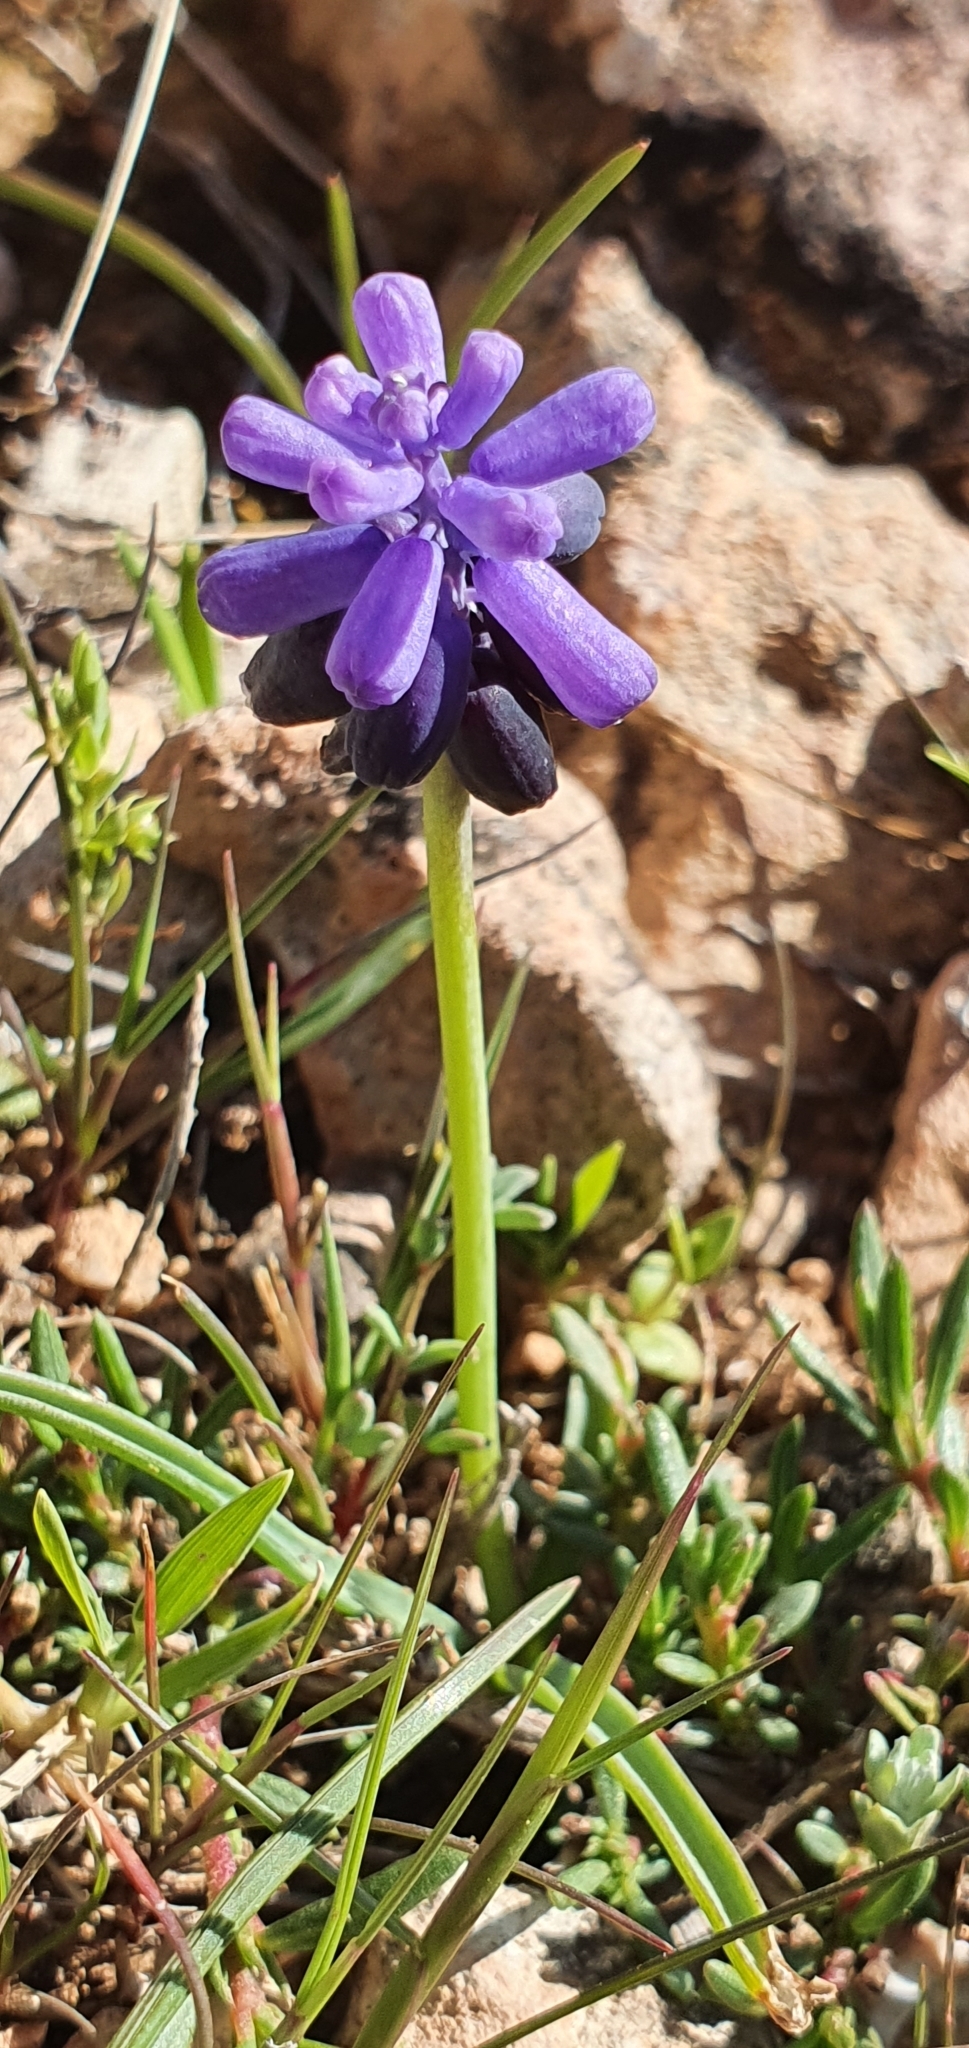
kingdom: Plantae
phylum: Tracheophyta
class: Liliopsida
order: Asparagales
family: Asparagaceae
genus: Muscari
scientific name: Muscari baeticum
